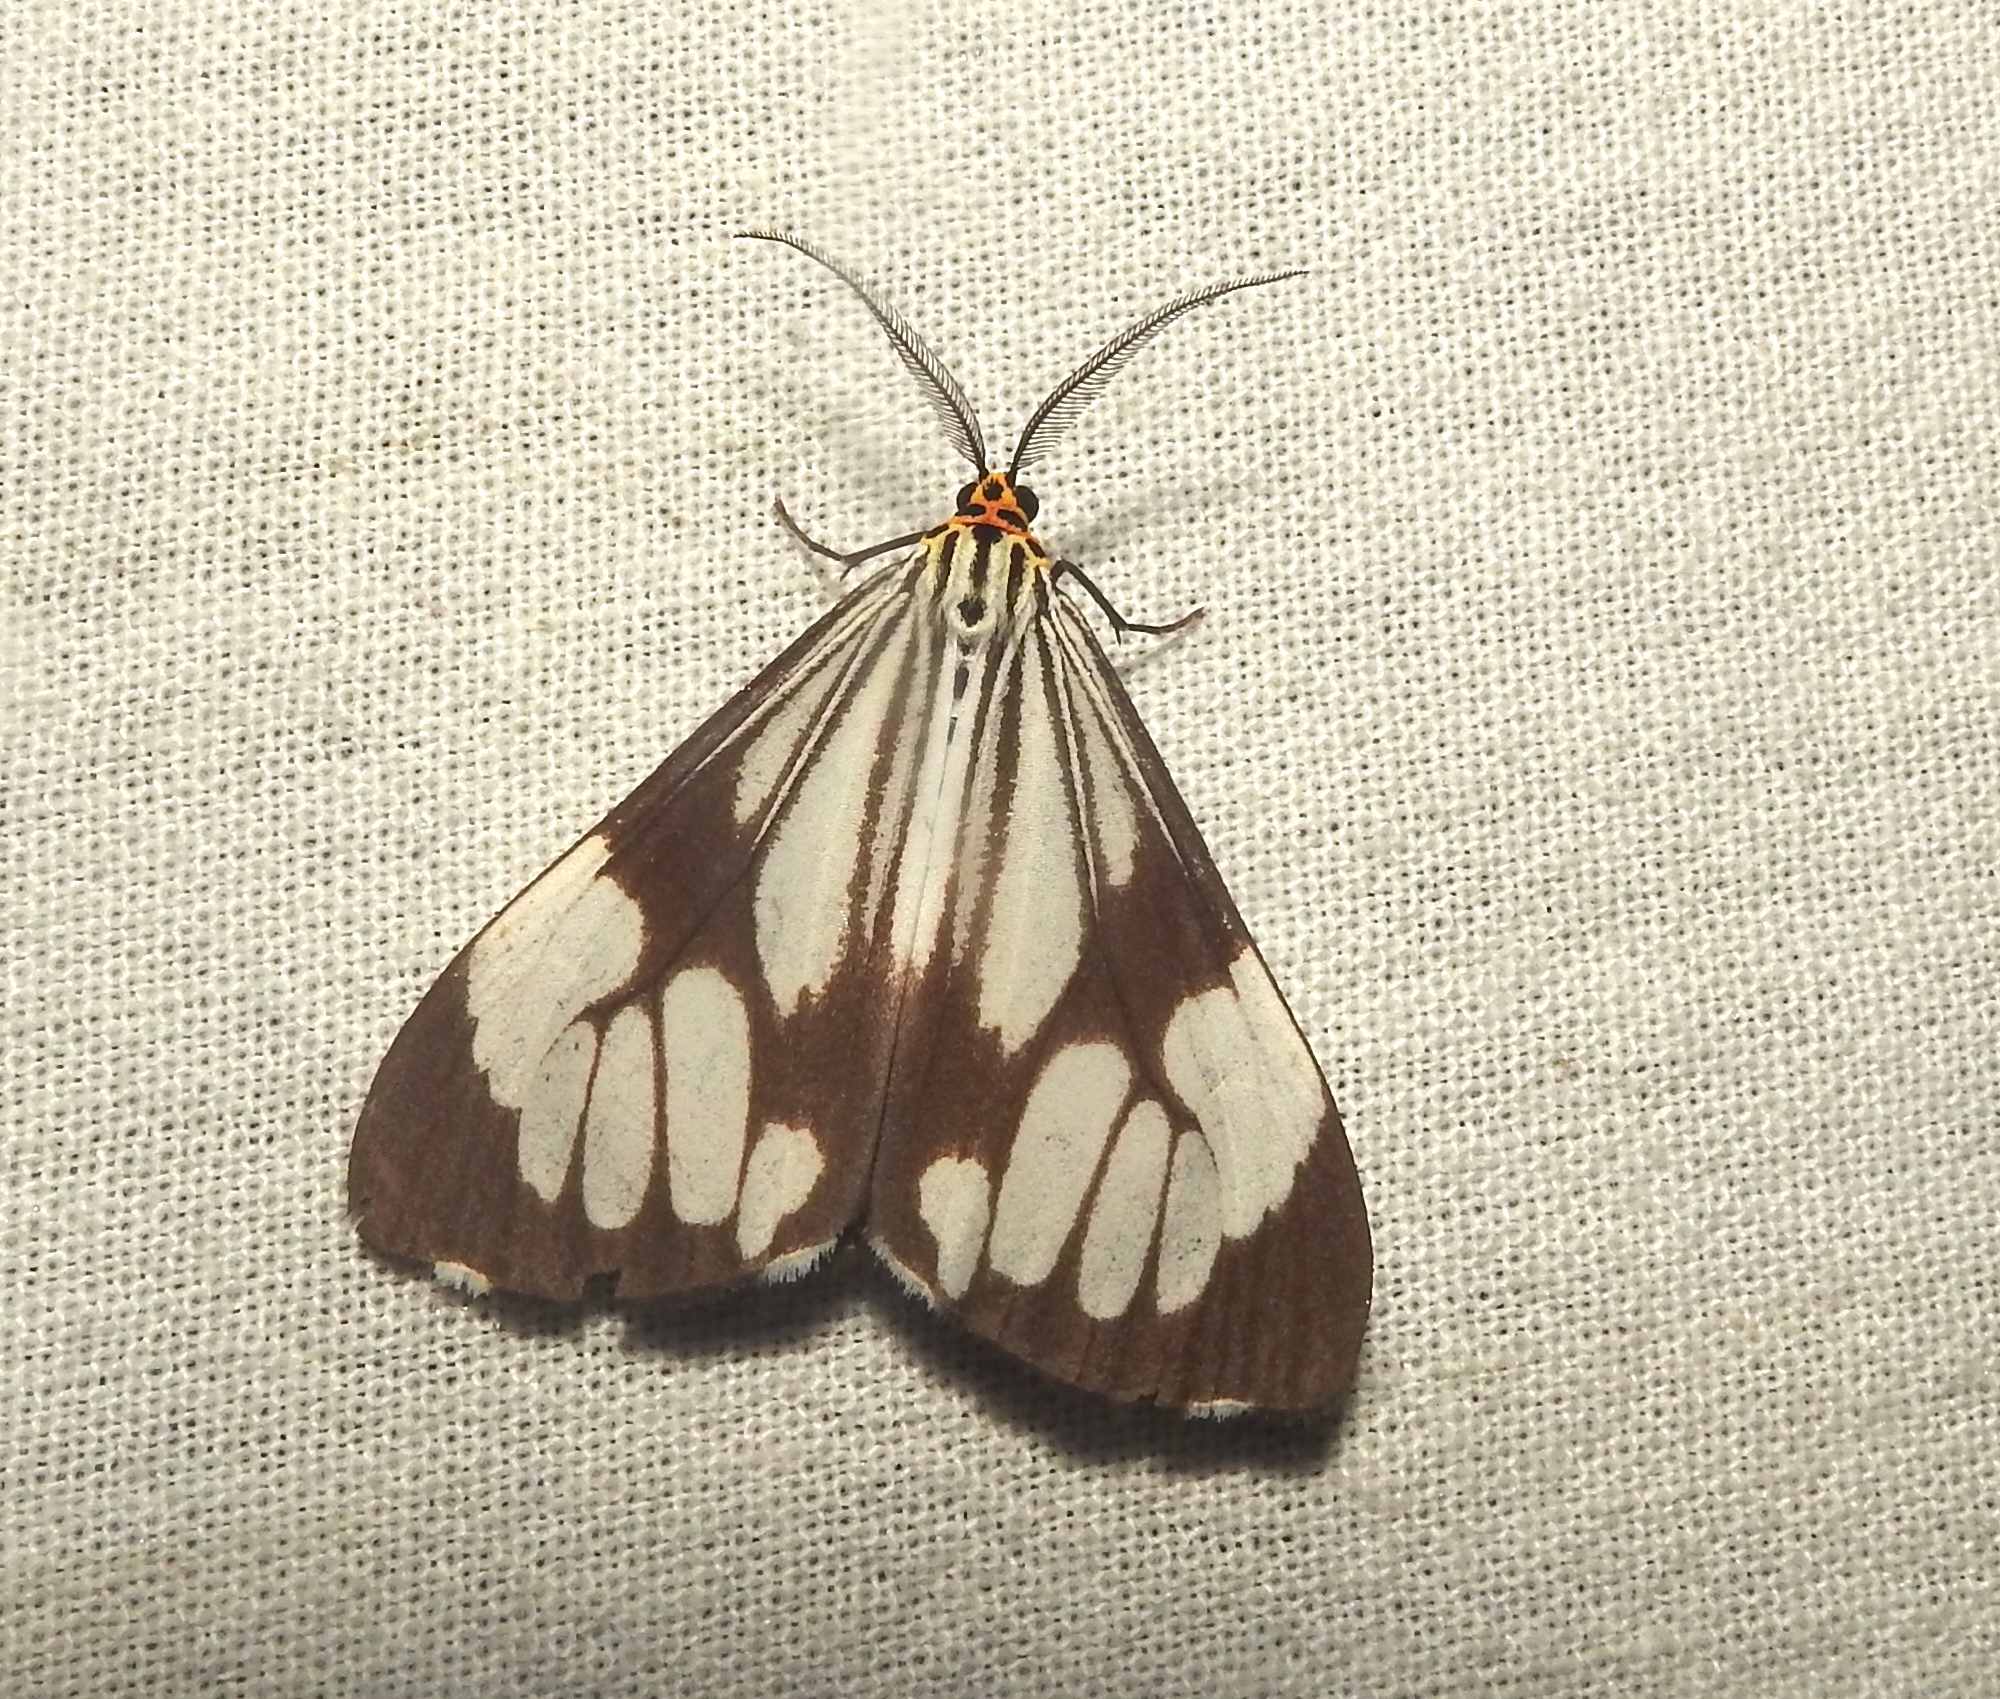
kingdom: Animalia
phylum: Arthropoda
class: Insecta
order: Lepidoptera
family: Erebidae
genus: Nyctemera
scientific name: Nyctemera coleta
